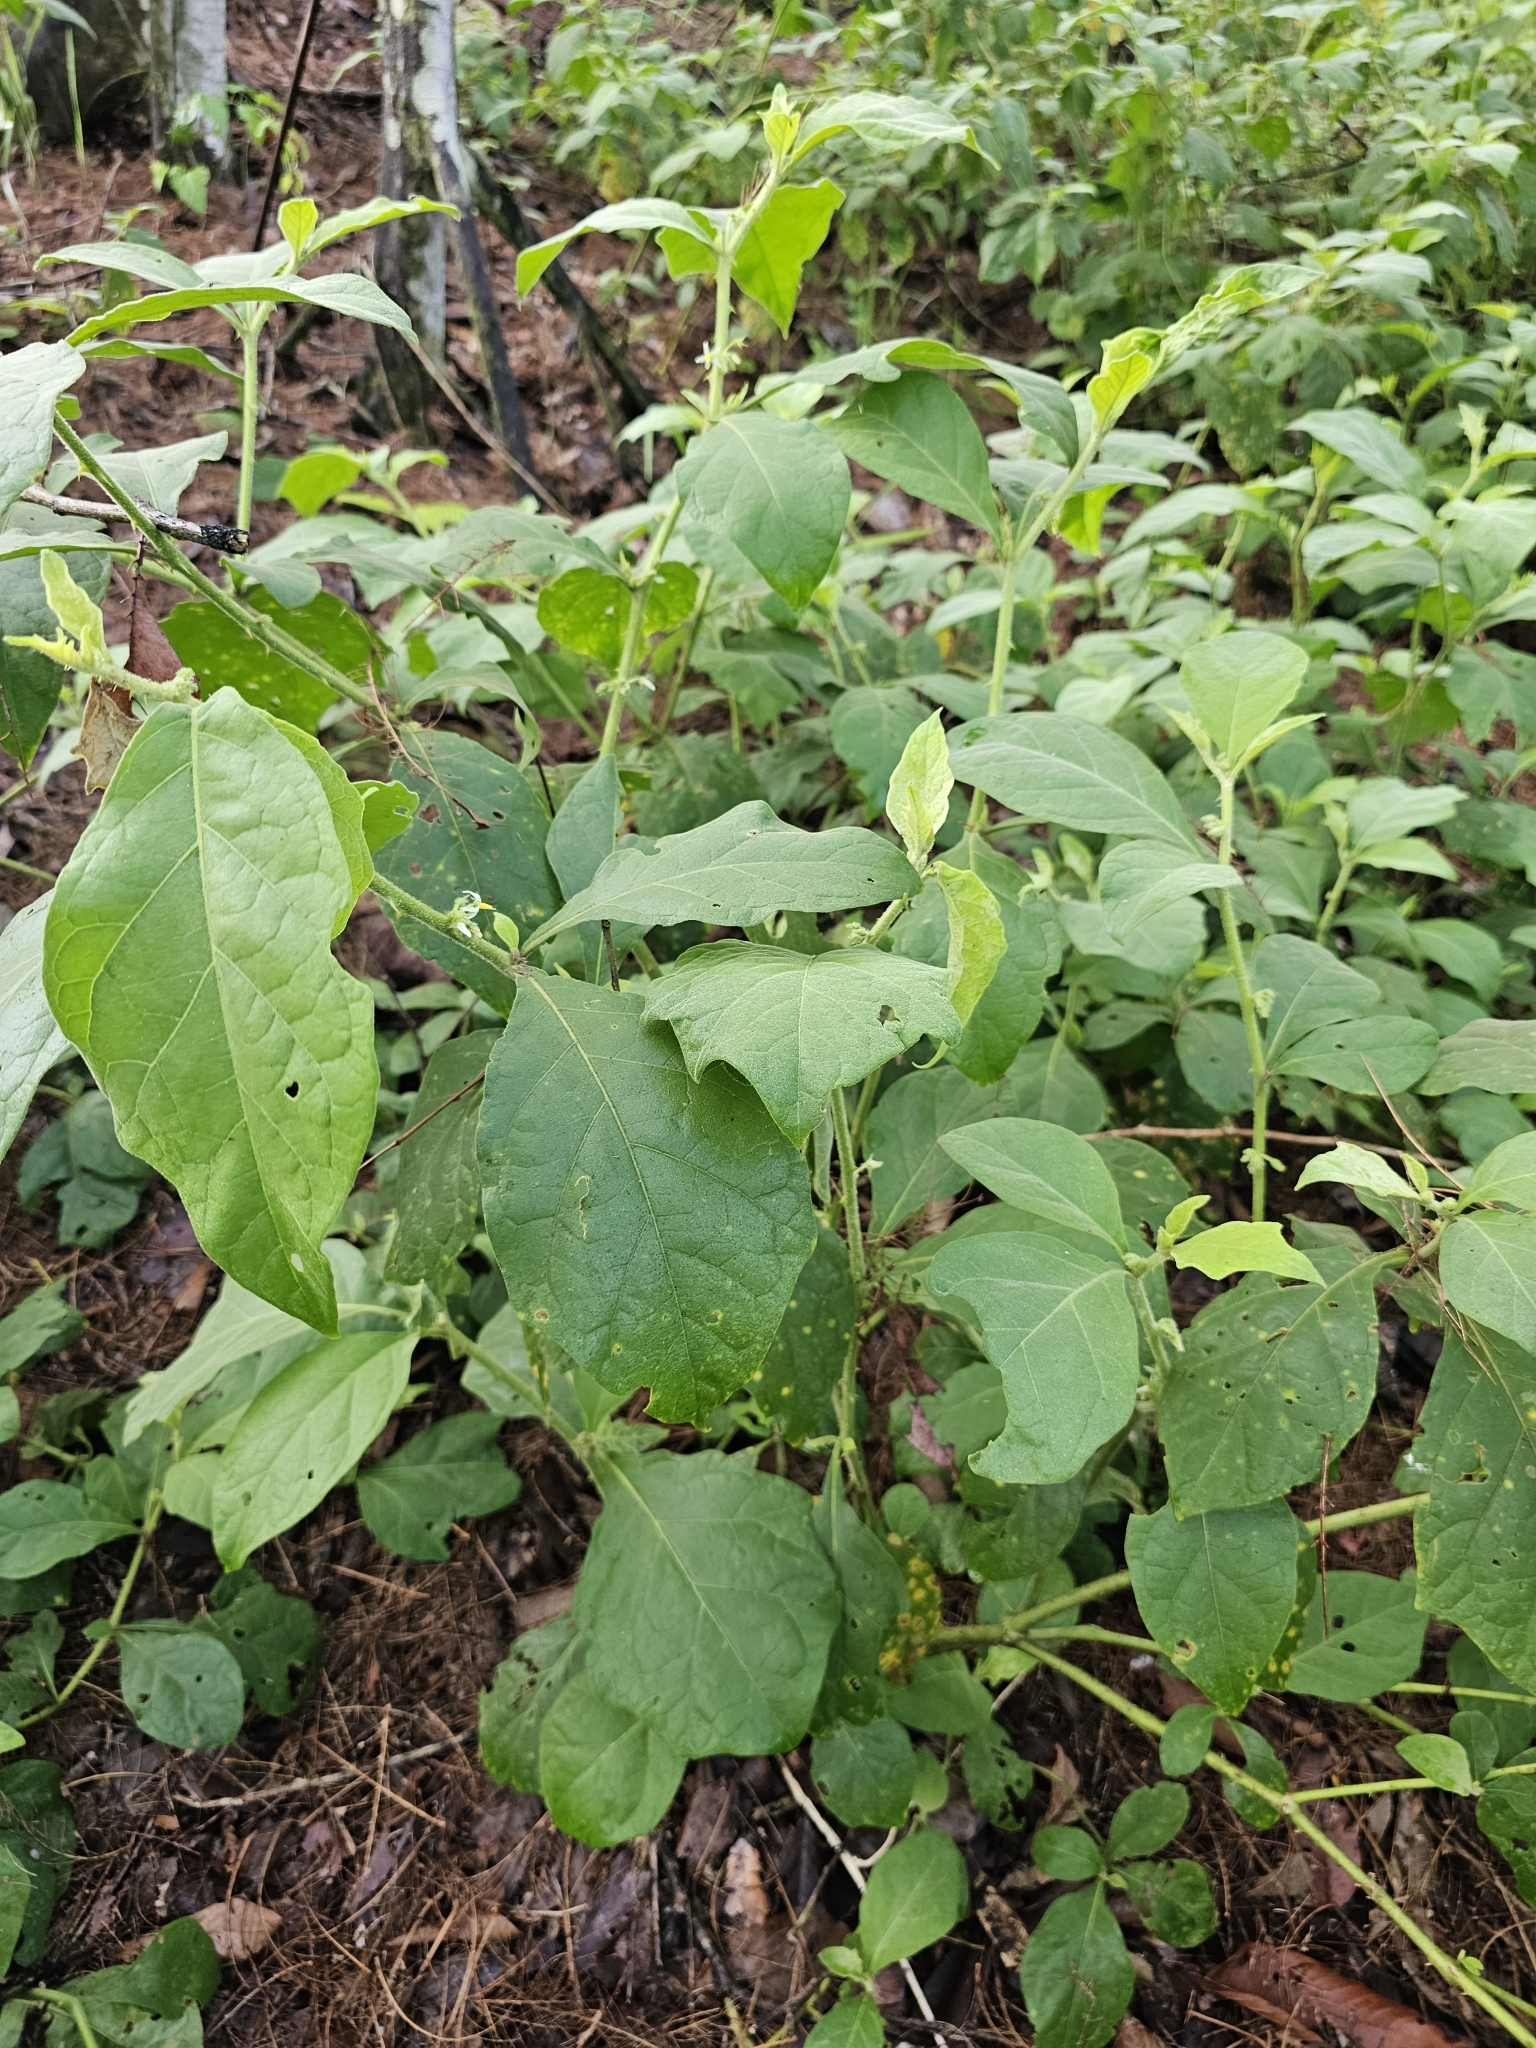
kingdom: Plantae
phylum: Tracheophyta
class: Magnoliopsida
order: Solanales
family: Solanaceae
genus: Solanum
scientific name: Solanum jamaicense
